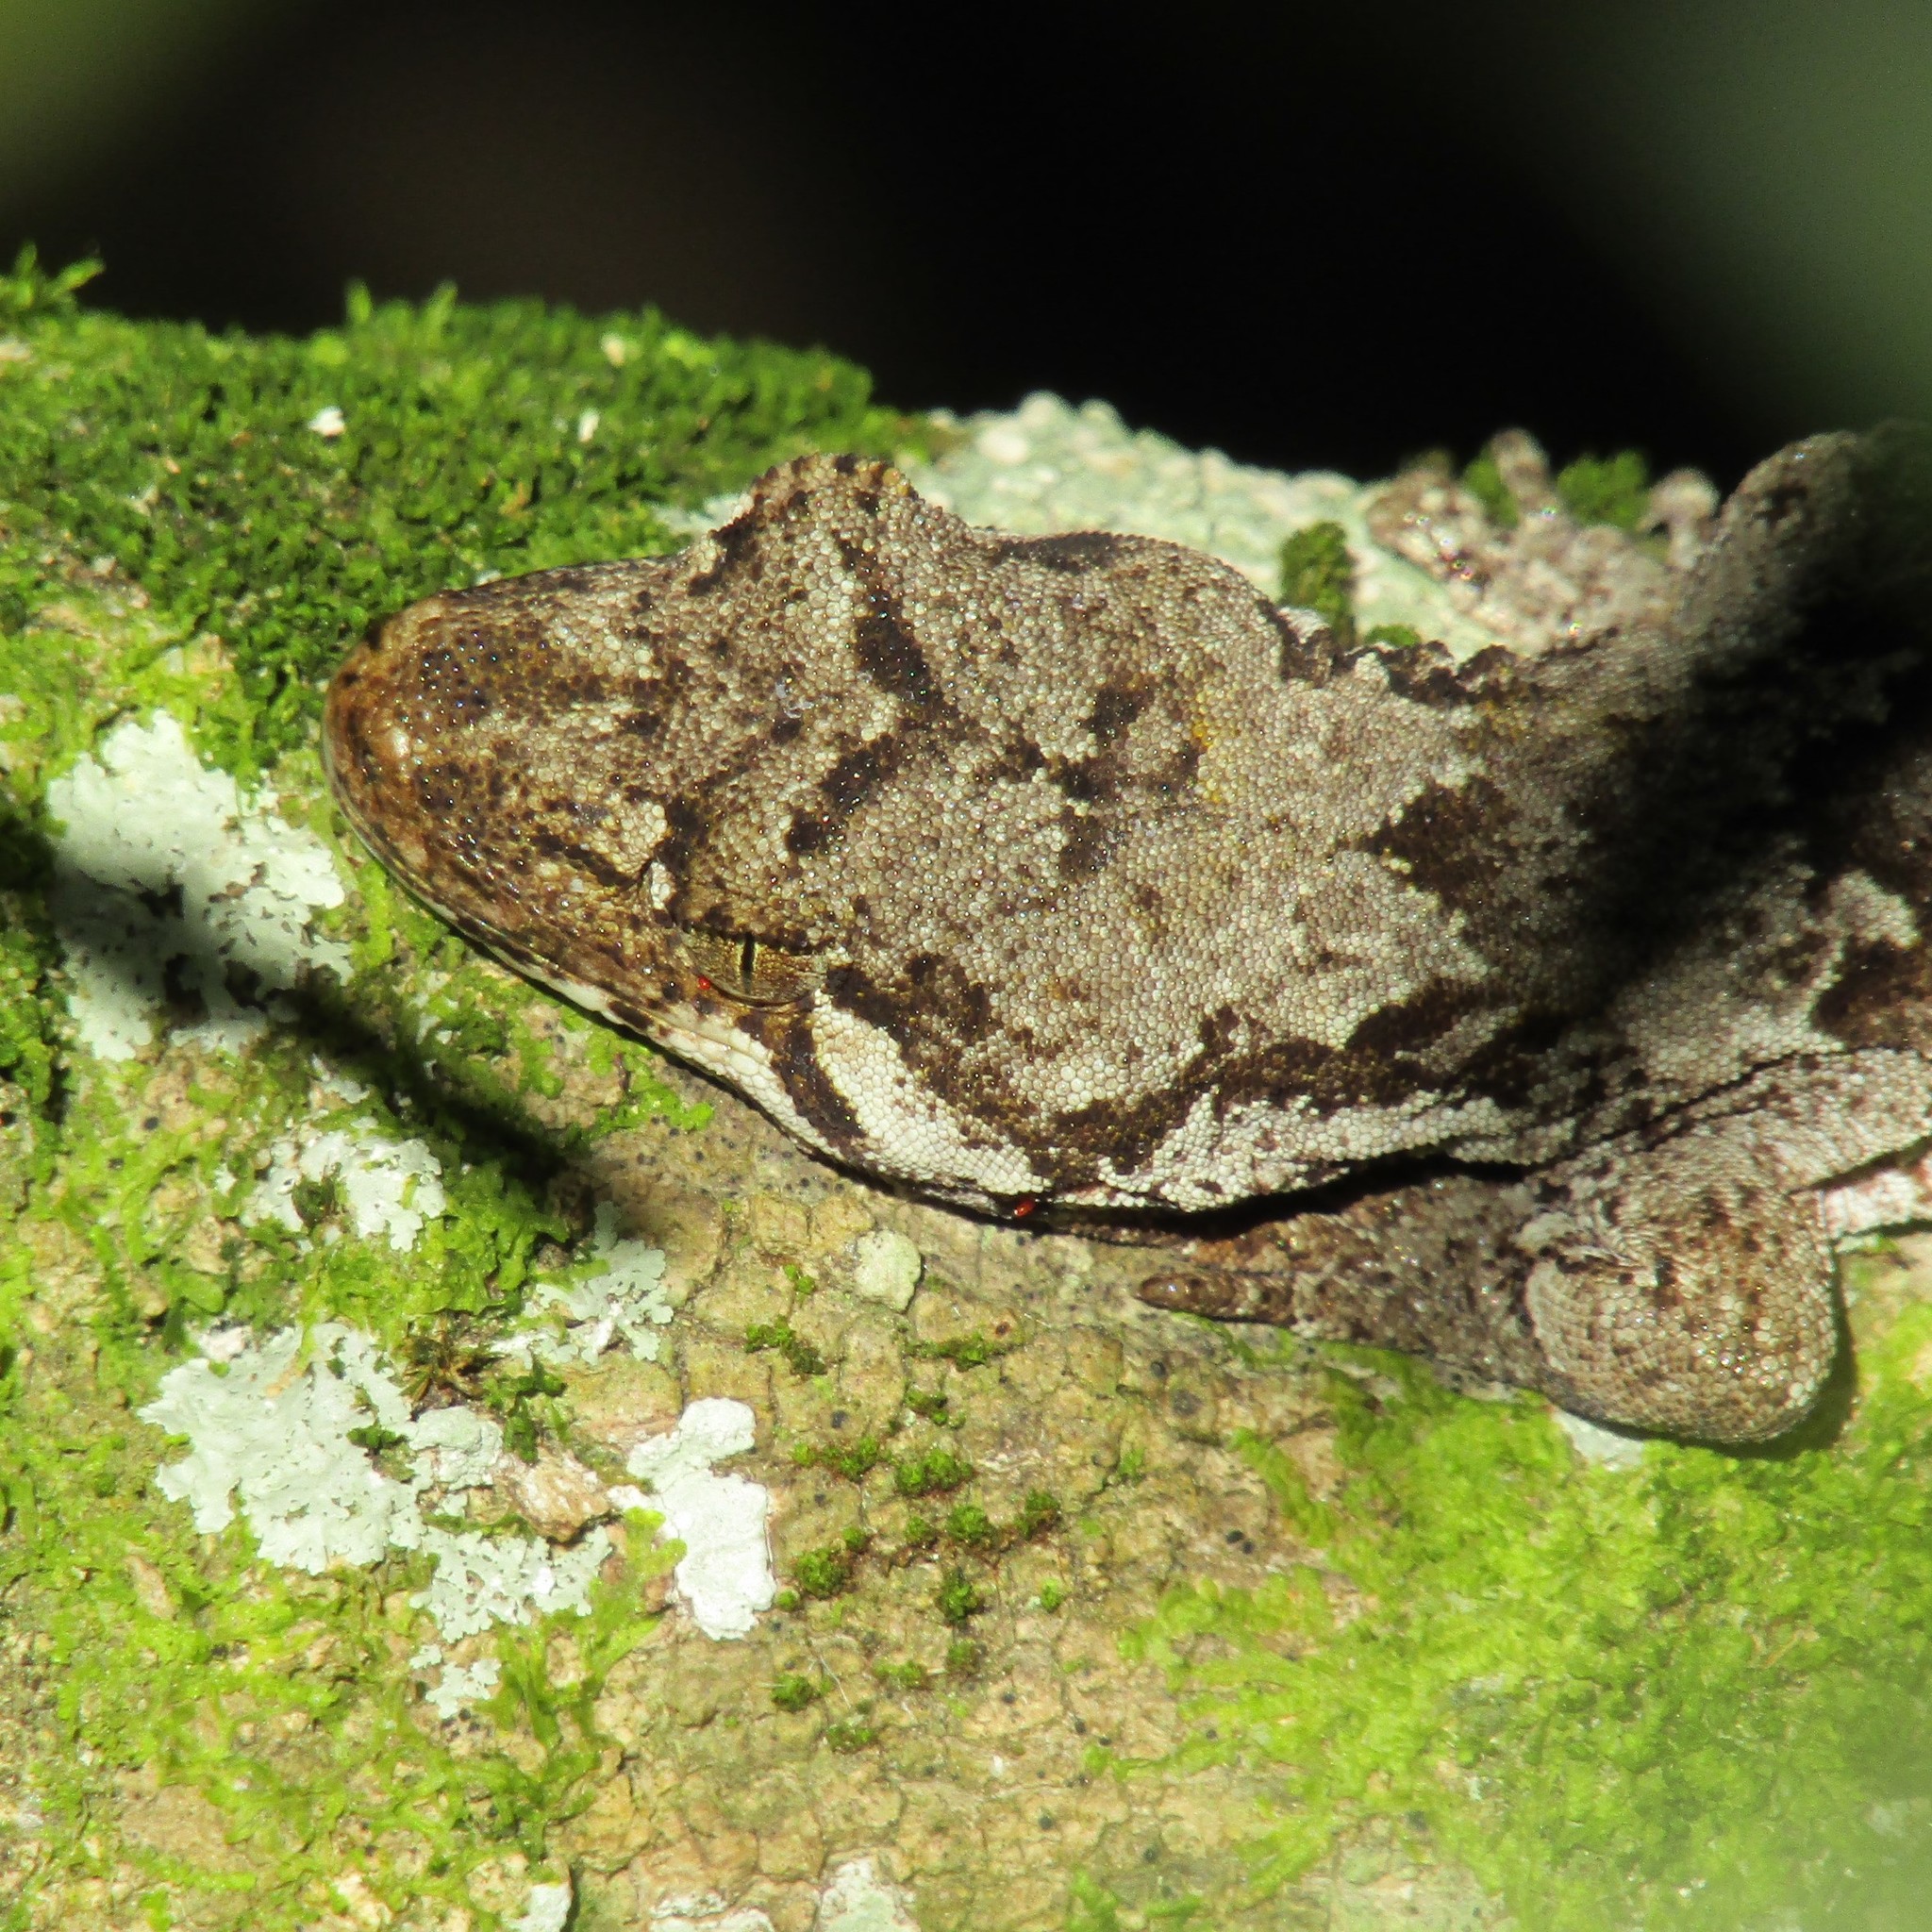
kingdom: Animalia
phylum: Chordata
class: Squamata
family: Diplodactylidae
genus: Mokopirirakau
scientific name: Mokopirirakau
